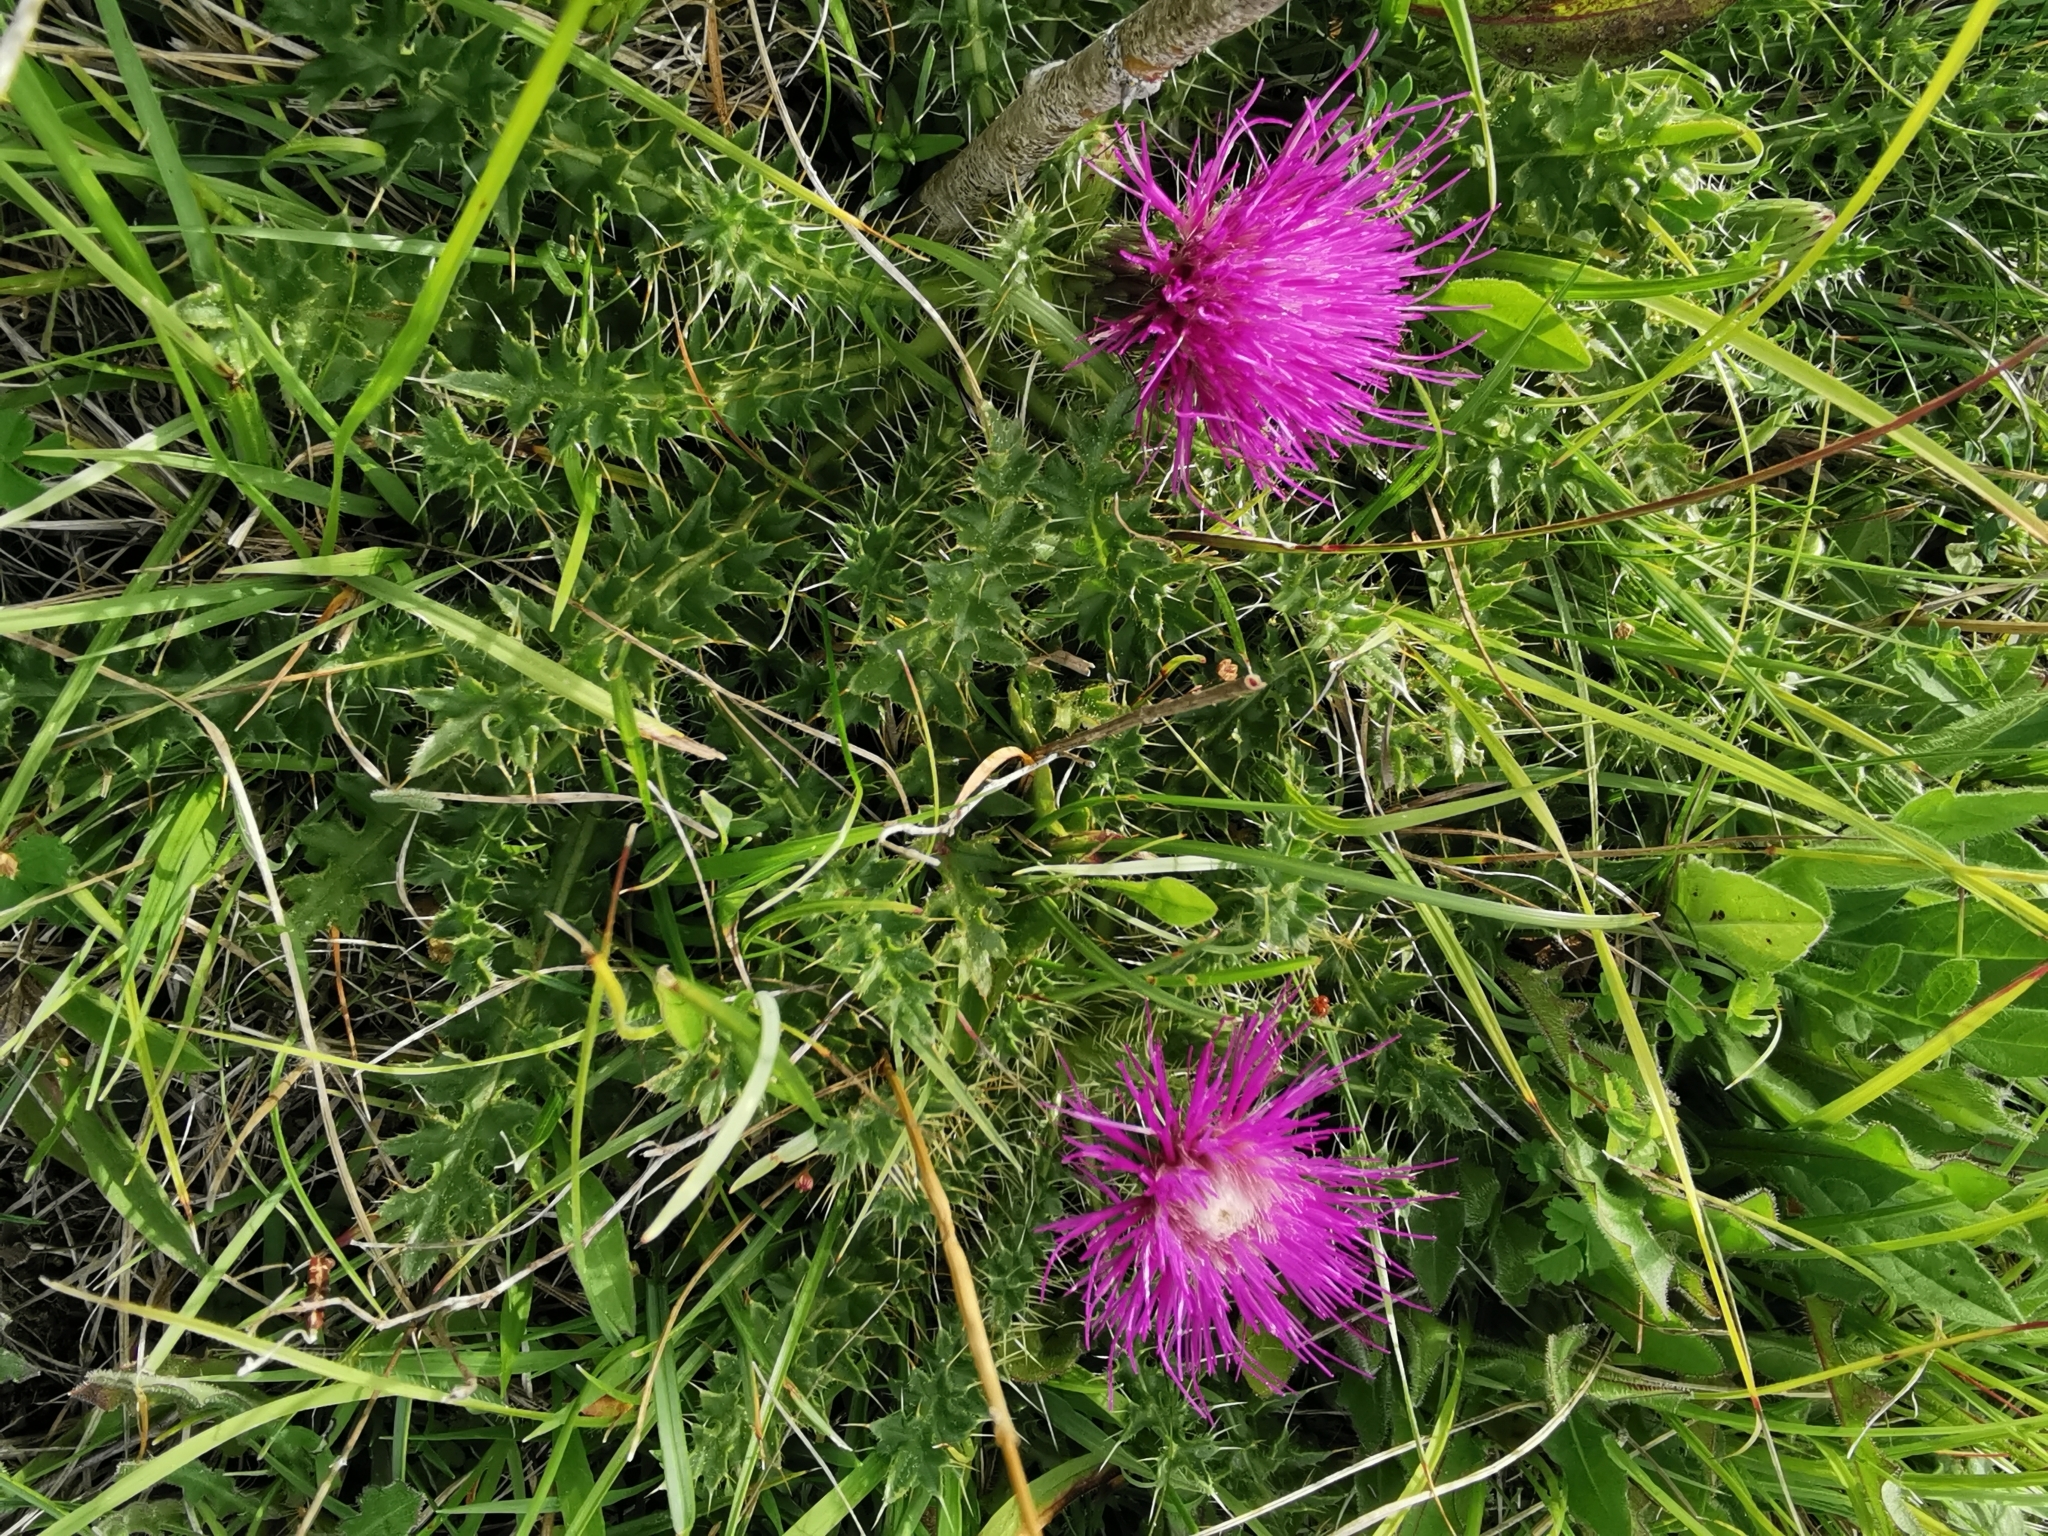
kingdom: Plantae
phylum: Tracheophyta
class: Magnoliopsida
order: Asterales
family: Asteraceae
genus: Cirsium
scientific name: Cirsium acaulon
